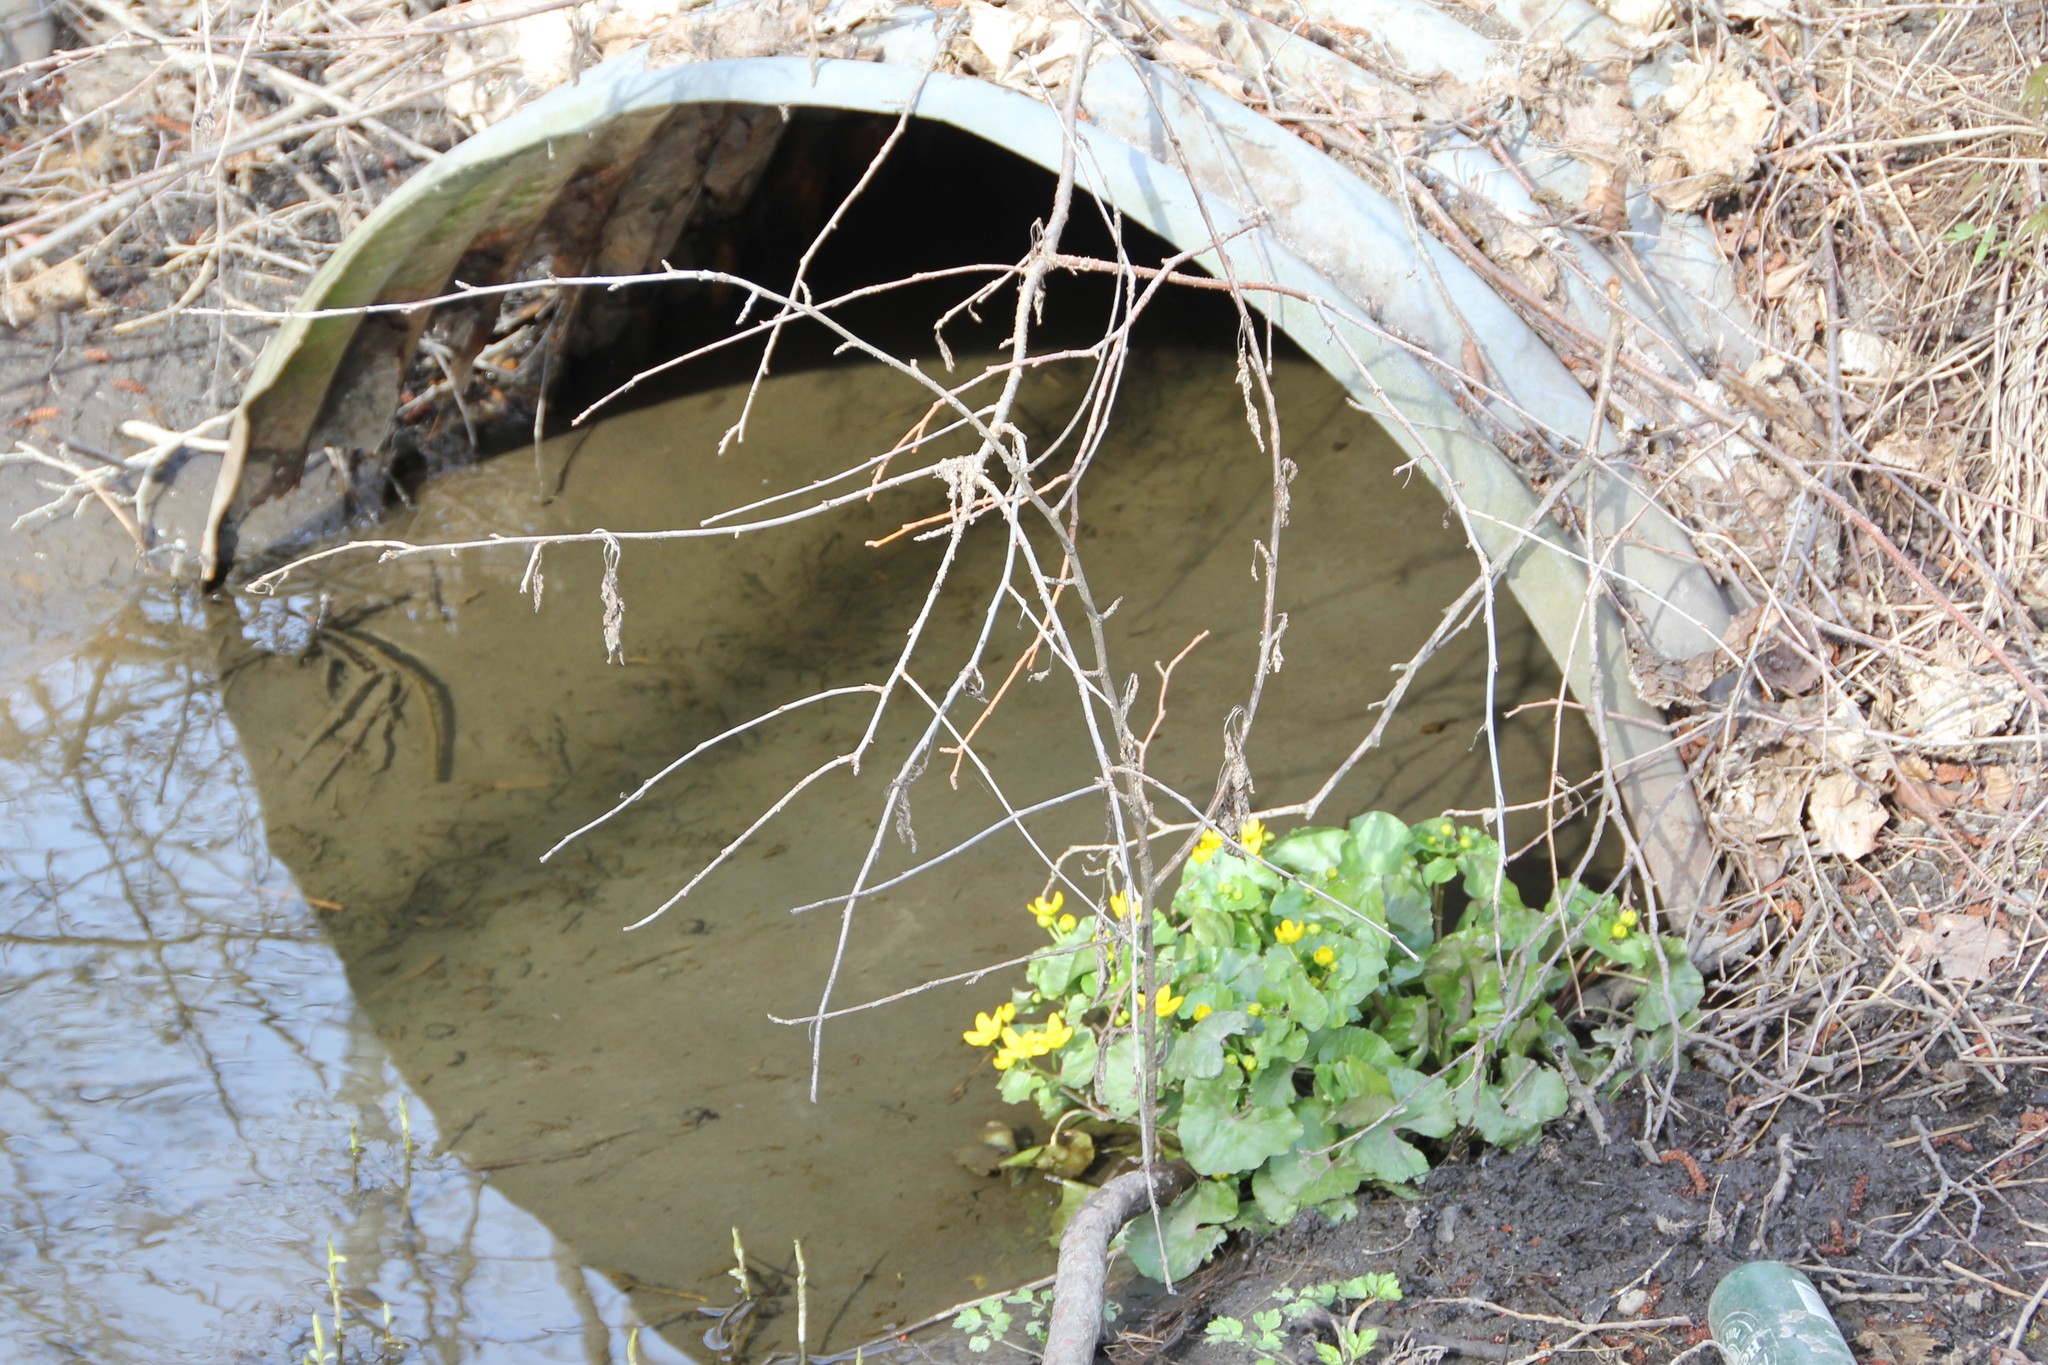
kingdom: Plantae
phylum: Tracheophyta
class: Magnoliopsida
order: Ranunculales
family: Ranunculaceae
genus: Caltha
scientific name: Caltha palustris
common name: Marsh marigold
